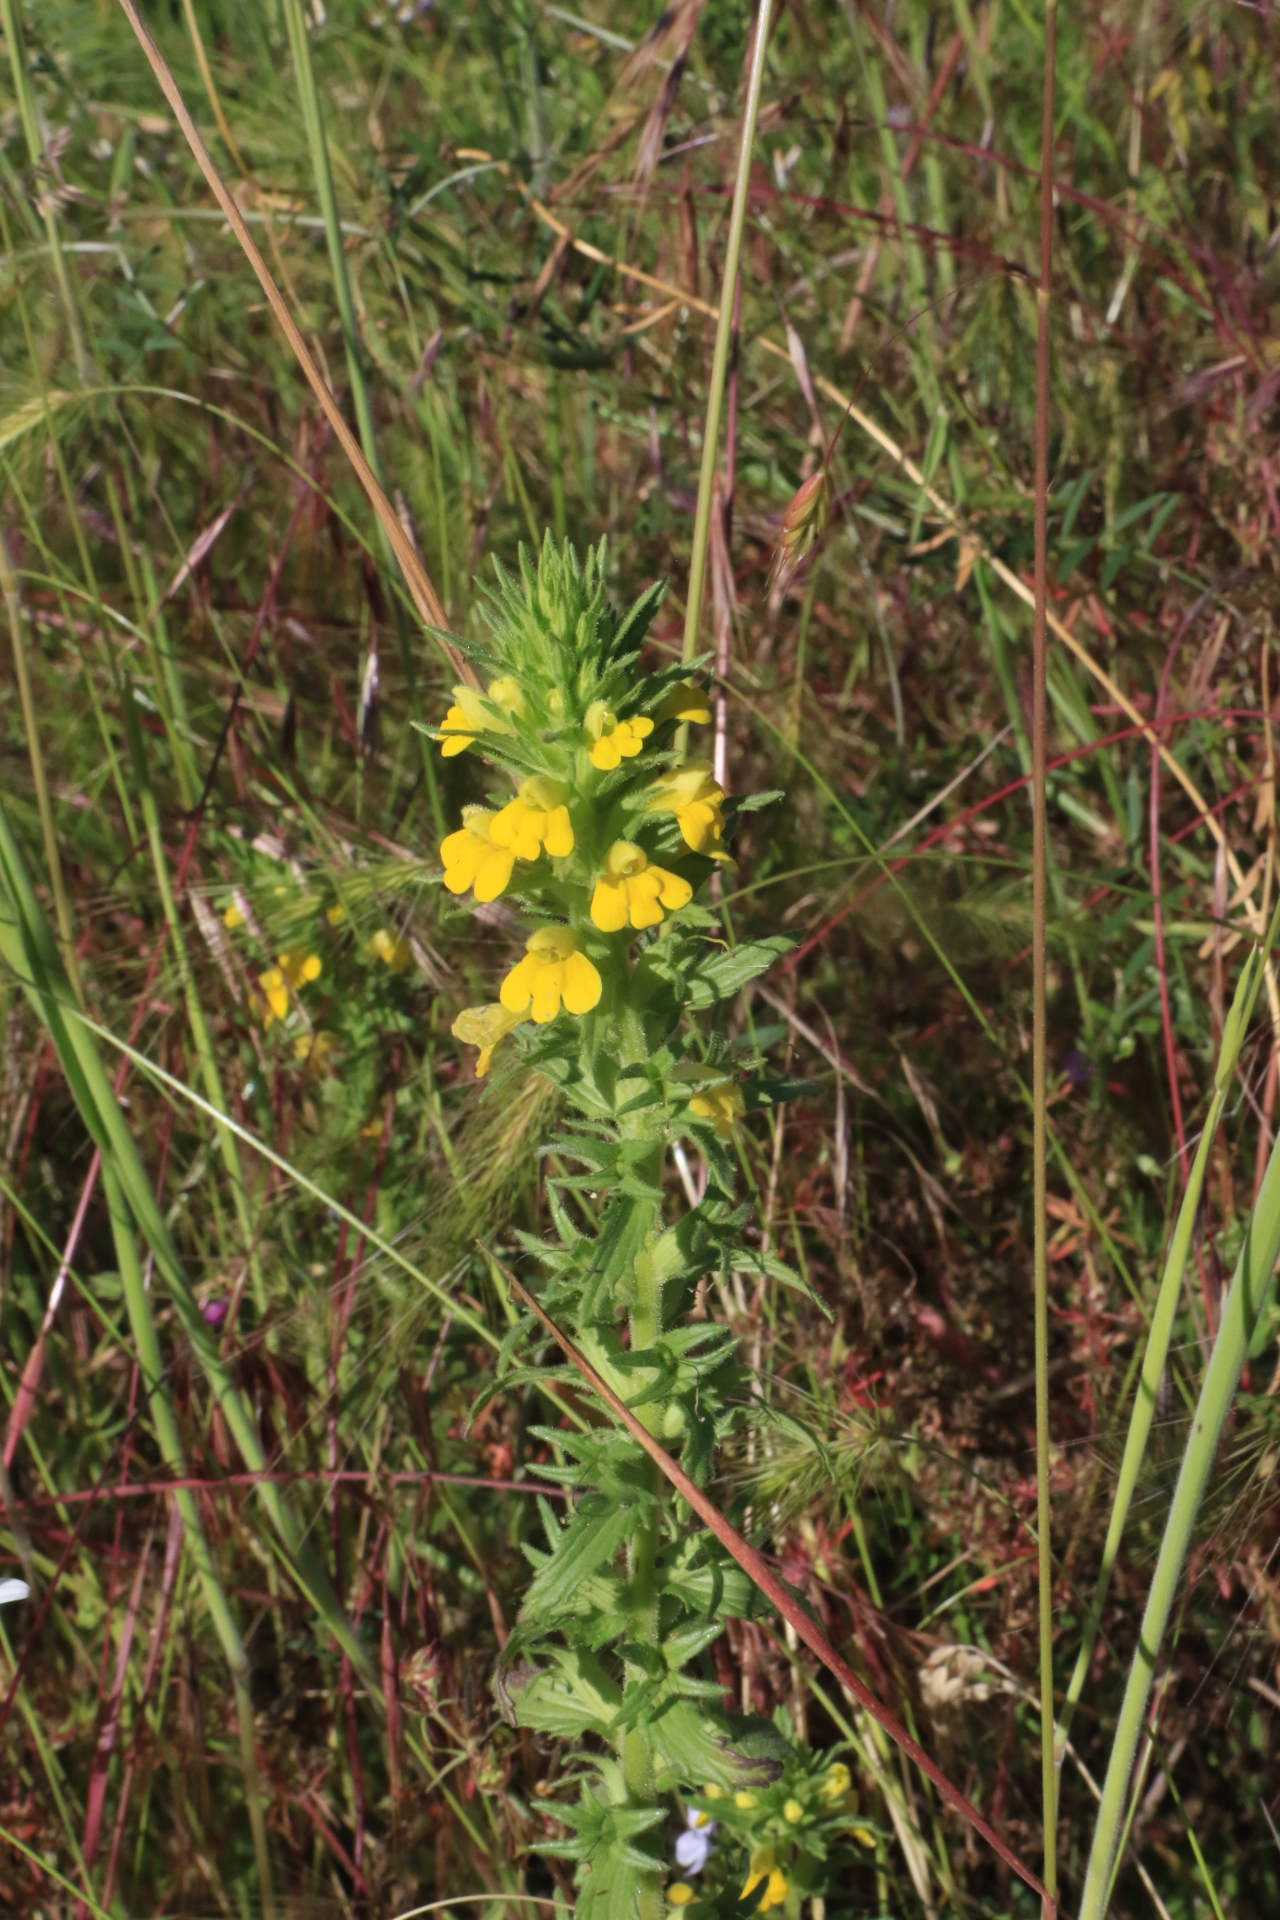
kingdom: Plantae
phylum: Tracheophyta
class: Magnoliopsida
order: Lamiales
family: Orobanchaceae
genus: Bellardia
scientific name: Bellardia viscosa
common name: Sticky parentucellia
